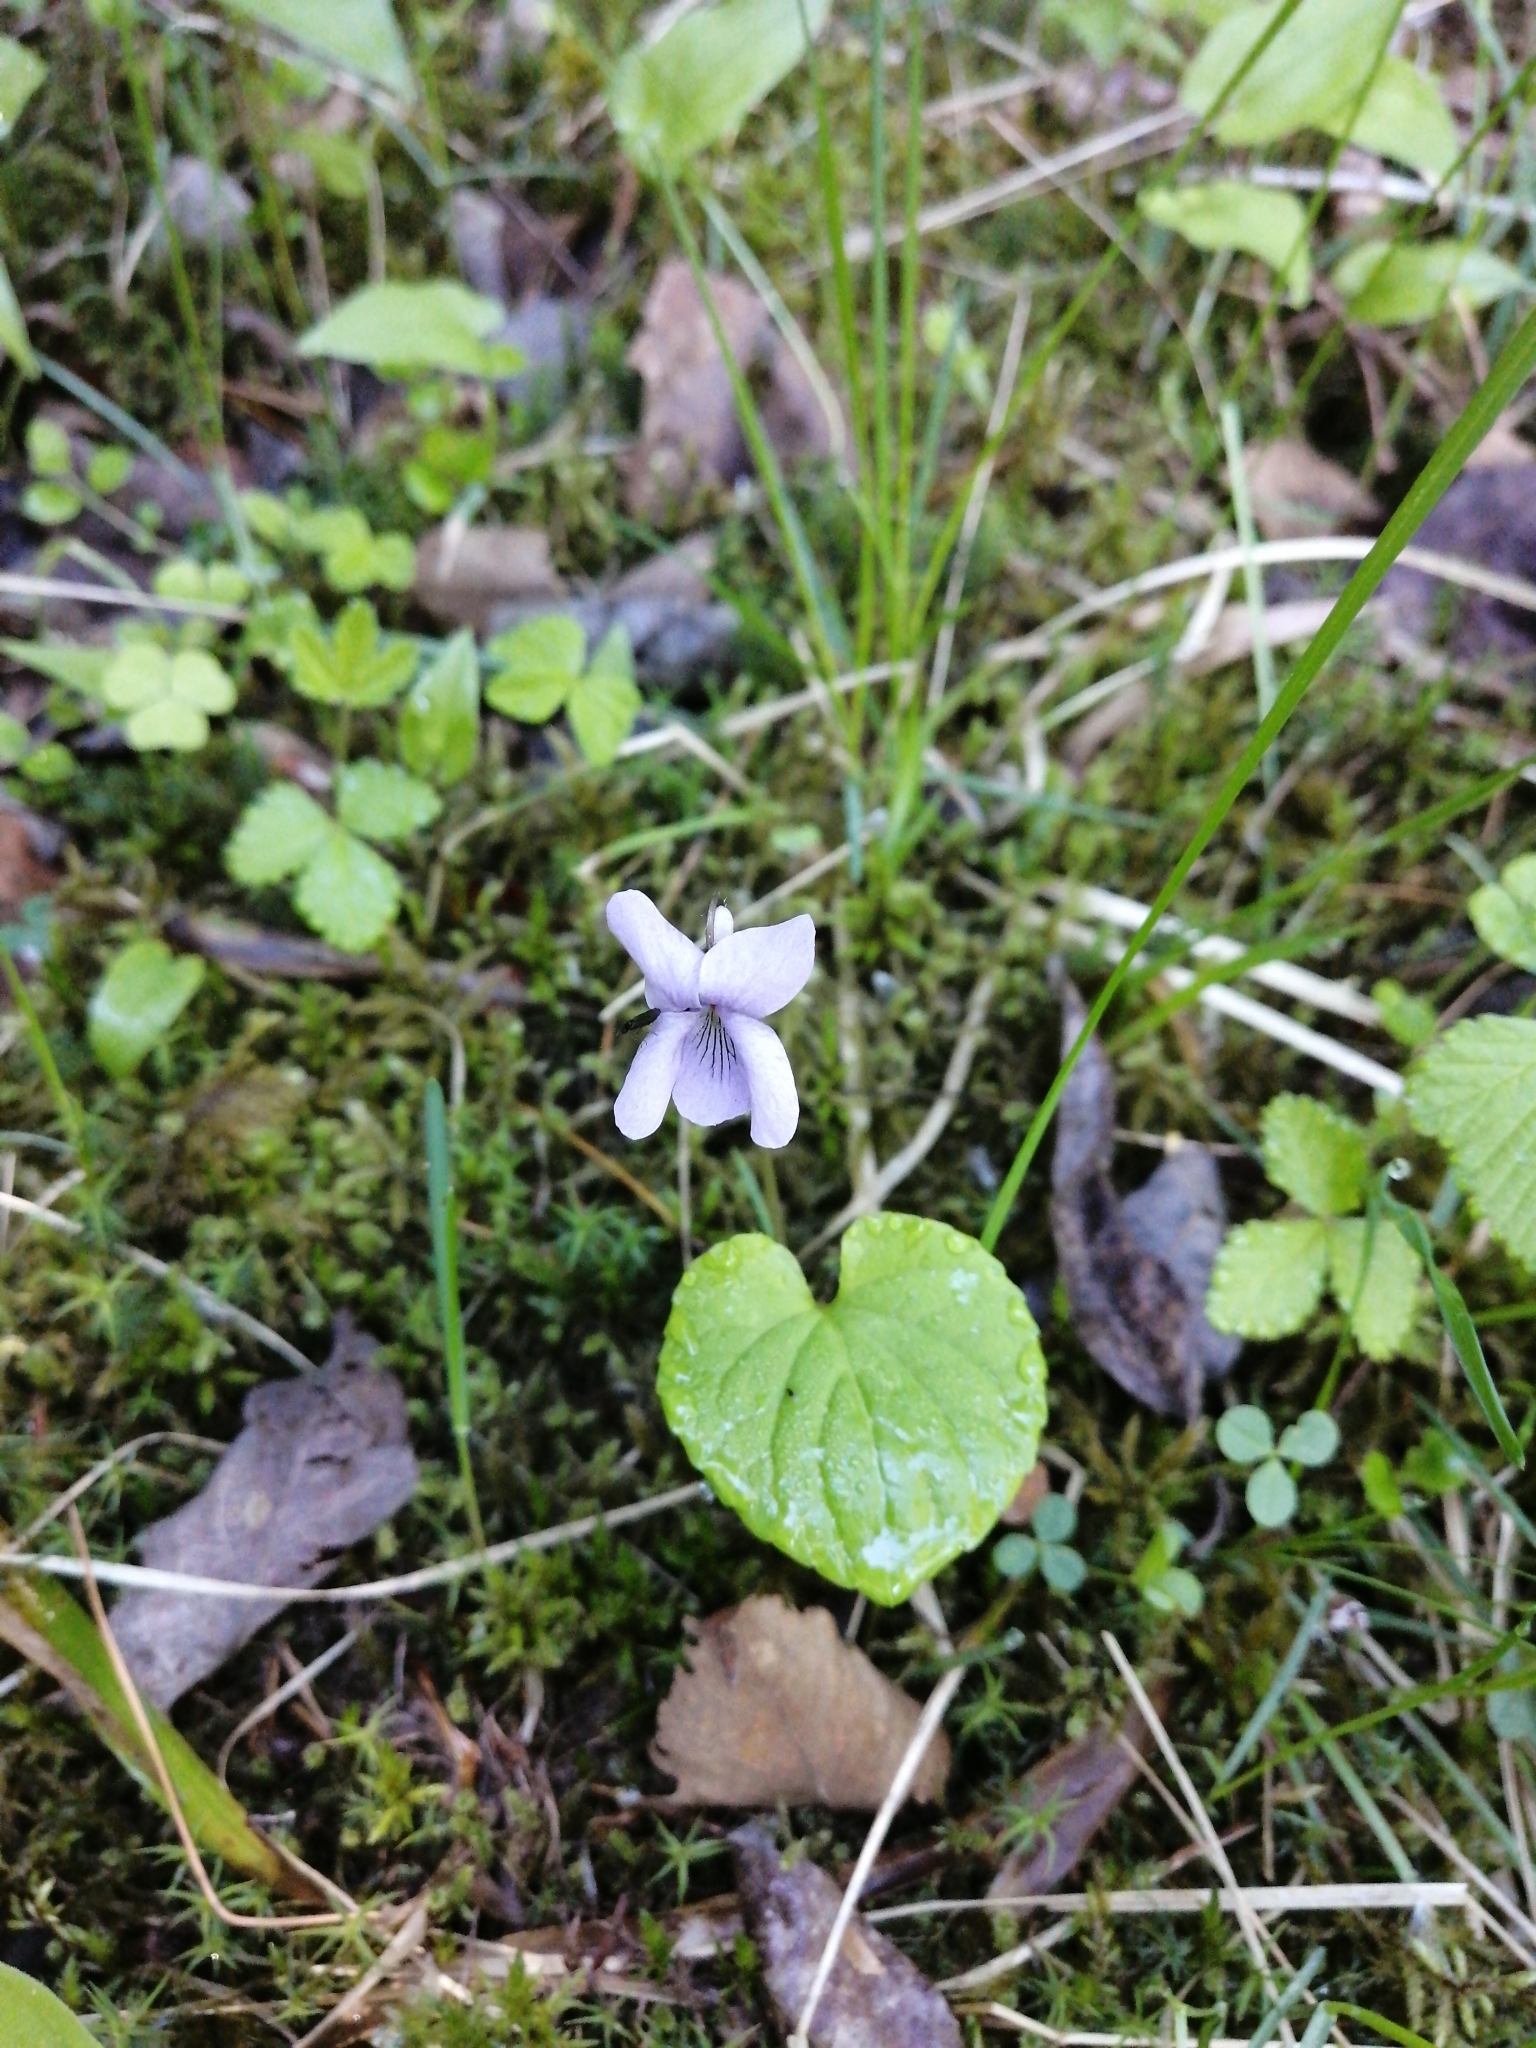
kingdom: Plantae
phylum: Tracheophyta
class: Magnoliopsida
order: Malpighiales
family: Violaceae
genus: Viola
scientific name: Viola epipsila
